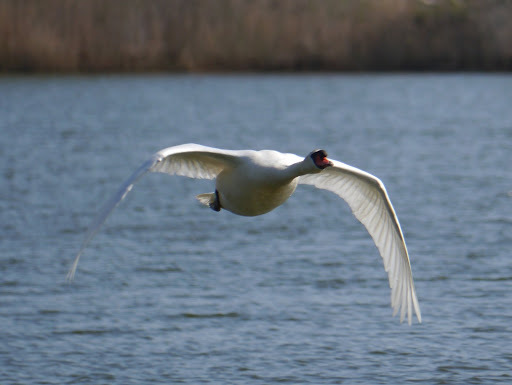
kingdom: Animalia
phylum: Chordata
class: Aves
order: Anseriformes
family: Anatidae
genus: Cygnus
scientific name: Cygnus olor
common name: Mute swan
